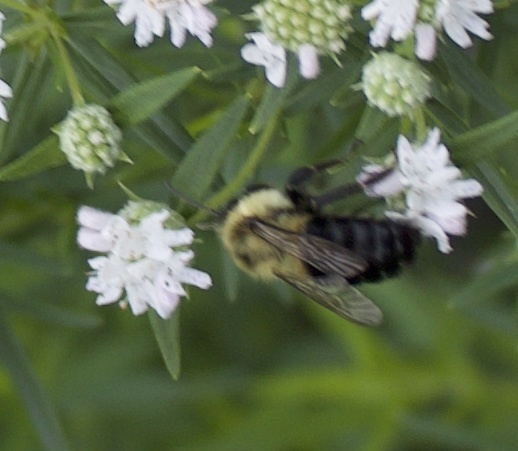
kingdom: Animalia
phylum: Arthropoda
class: Insecta
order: Hymenoptera
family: Apidae
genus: Bombus
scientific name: Bombus impatiens
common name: Common eastern bumble bee
